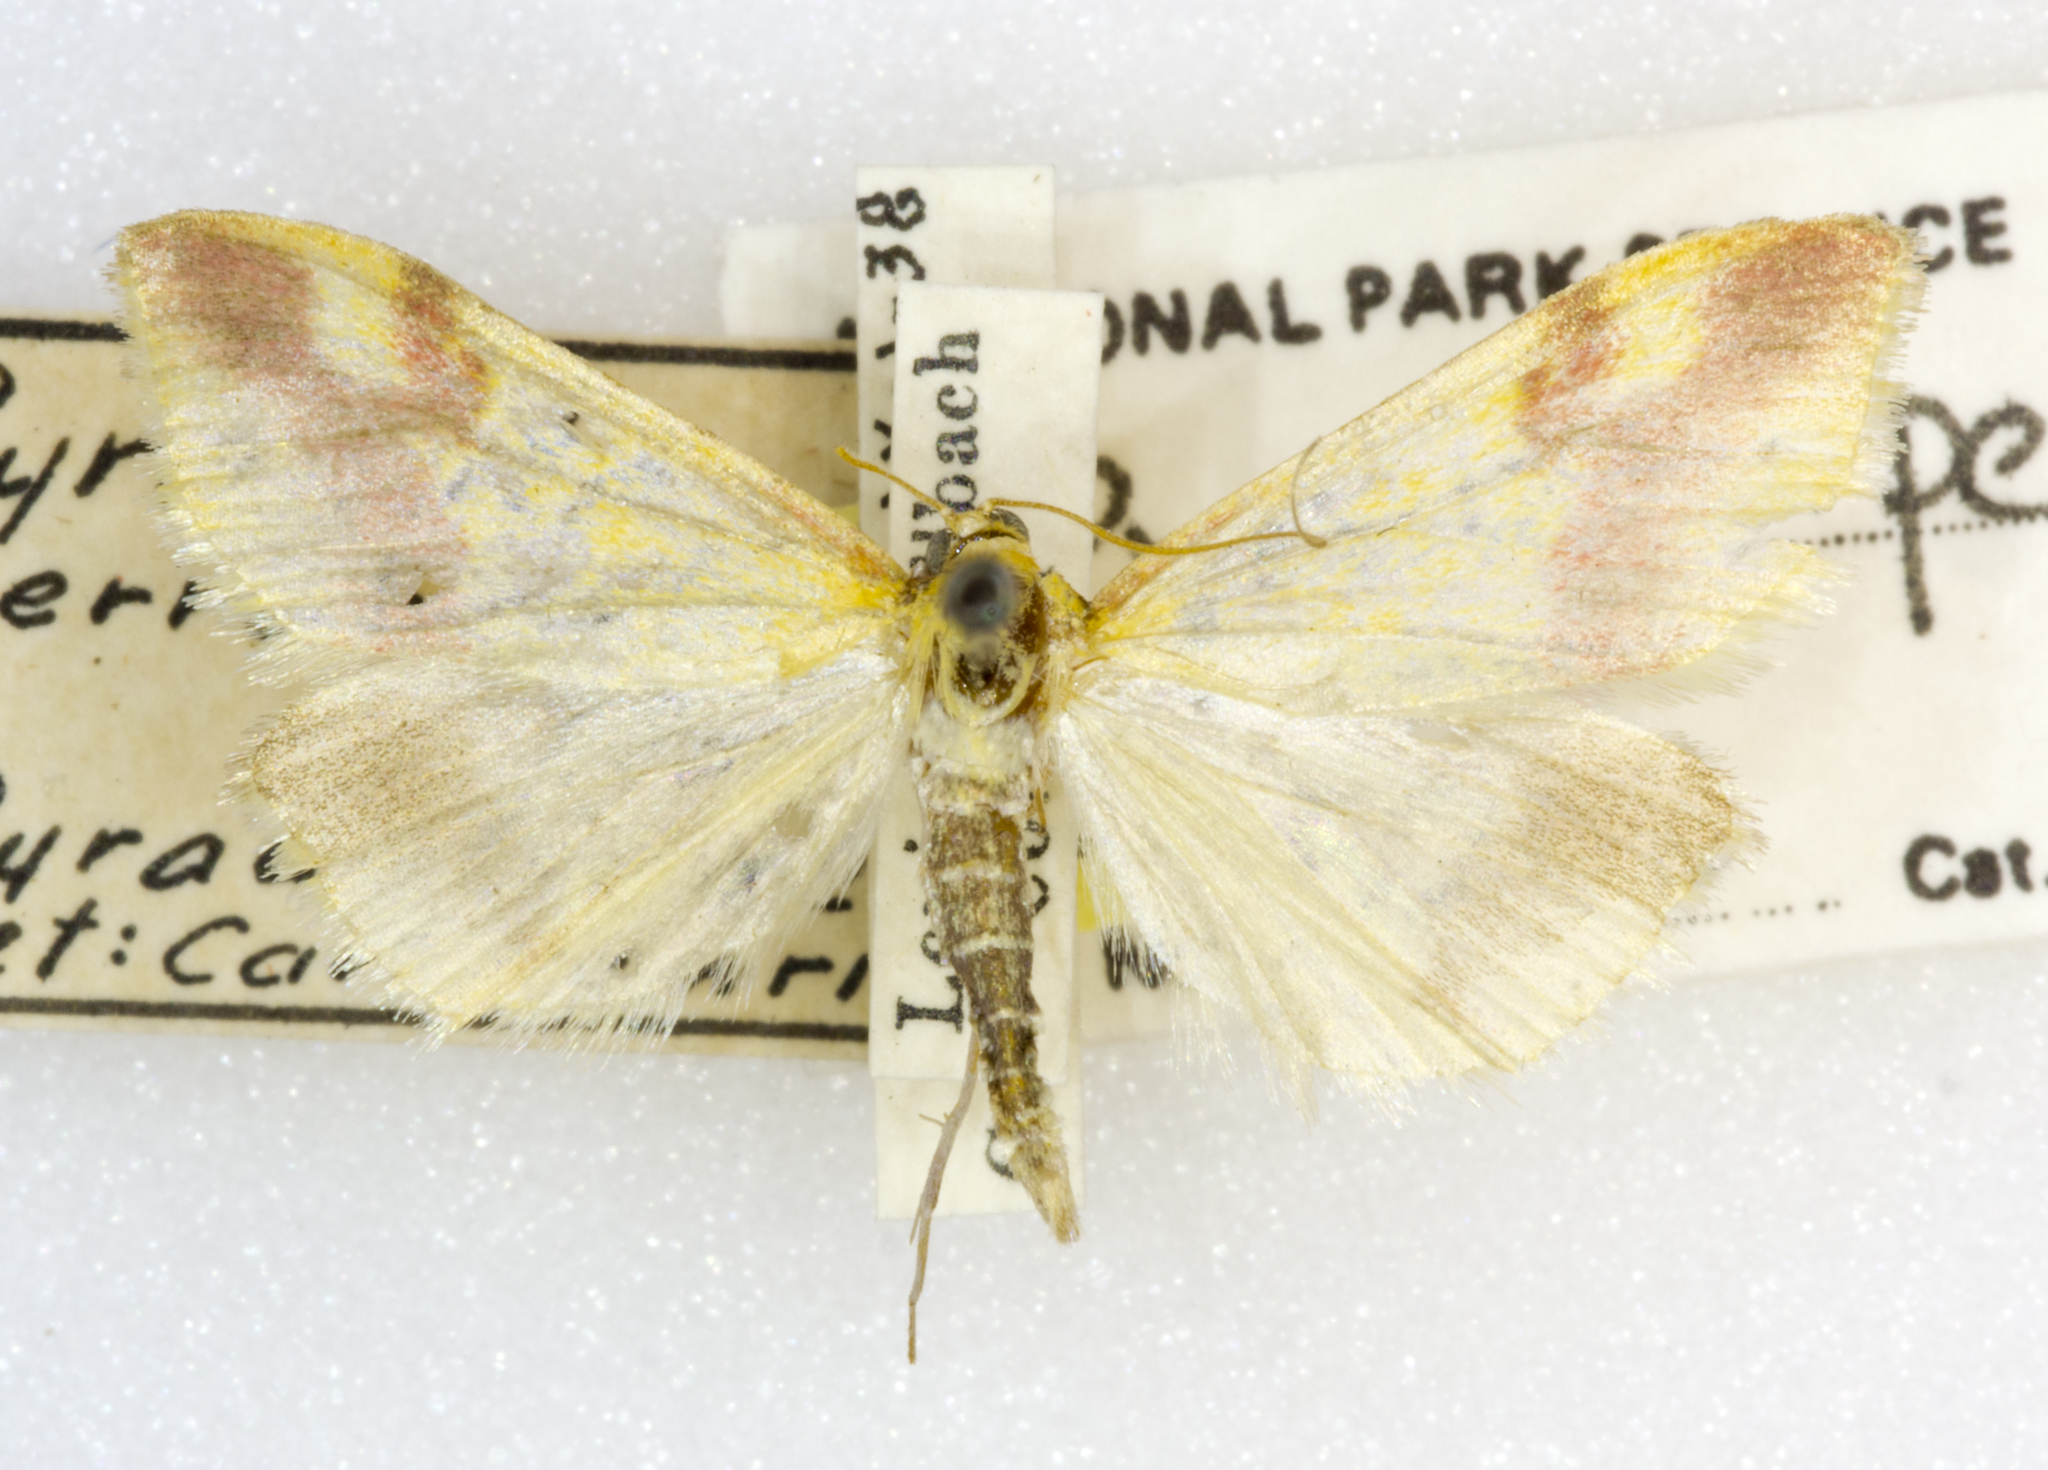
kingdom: Animalia
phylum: Arthropoda
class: Insecta
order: Lepidoptera
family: Crambidae
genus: Pyrausta
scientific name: Pyrausta perrubralis
